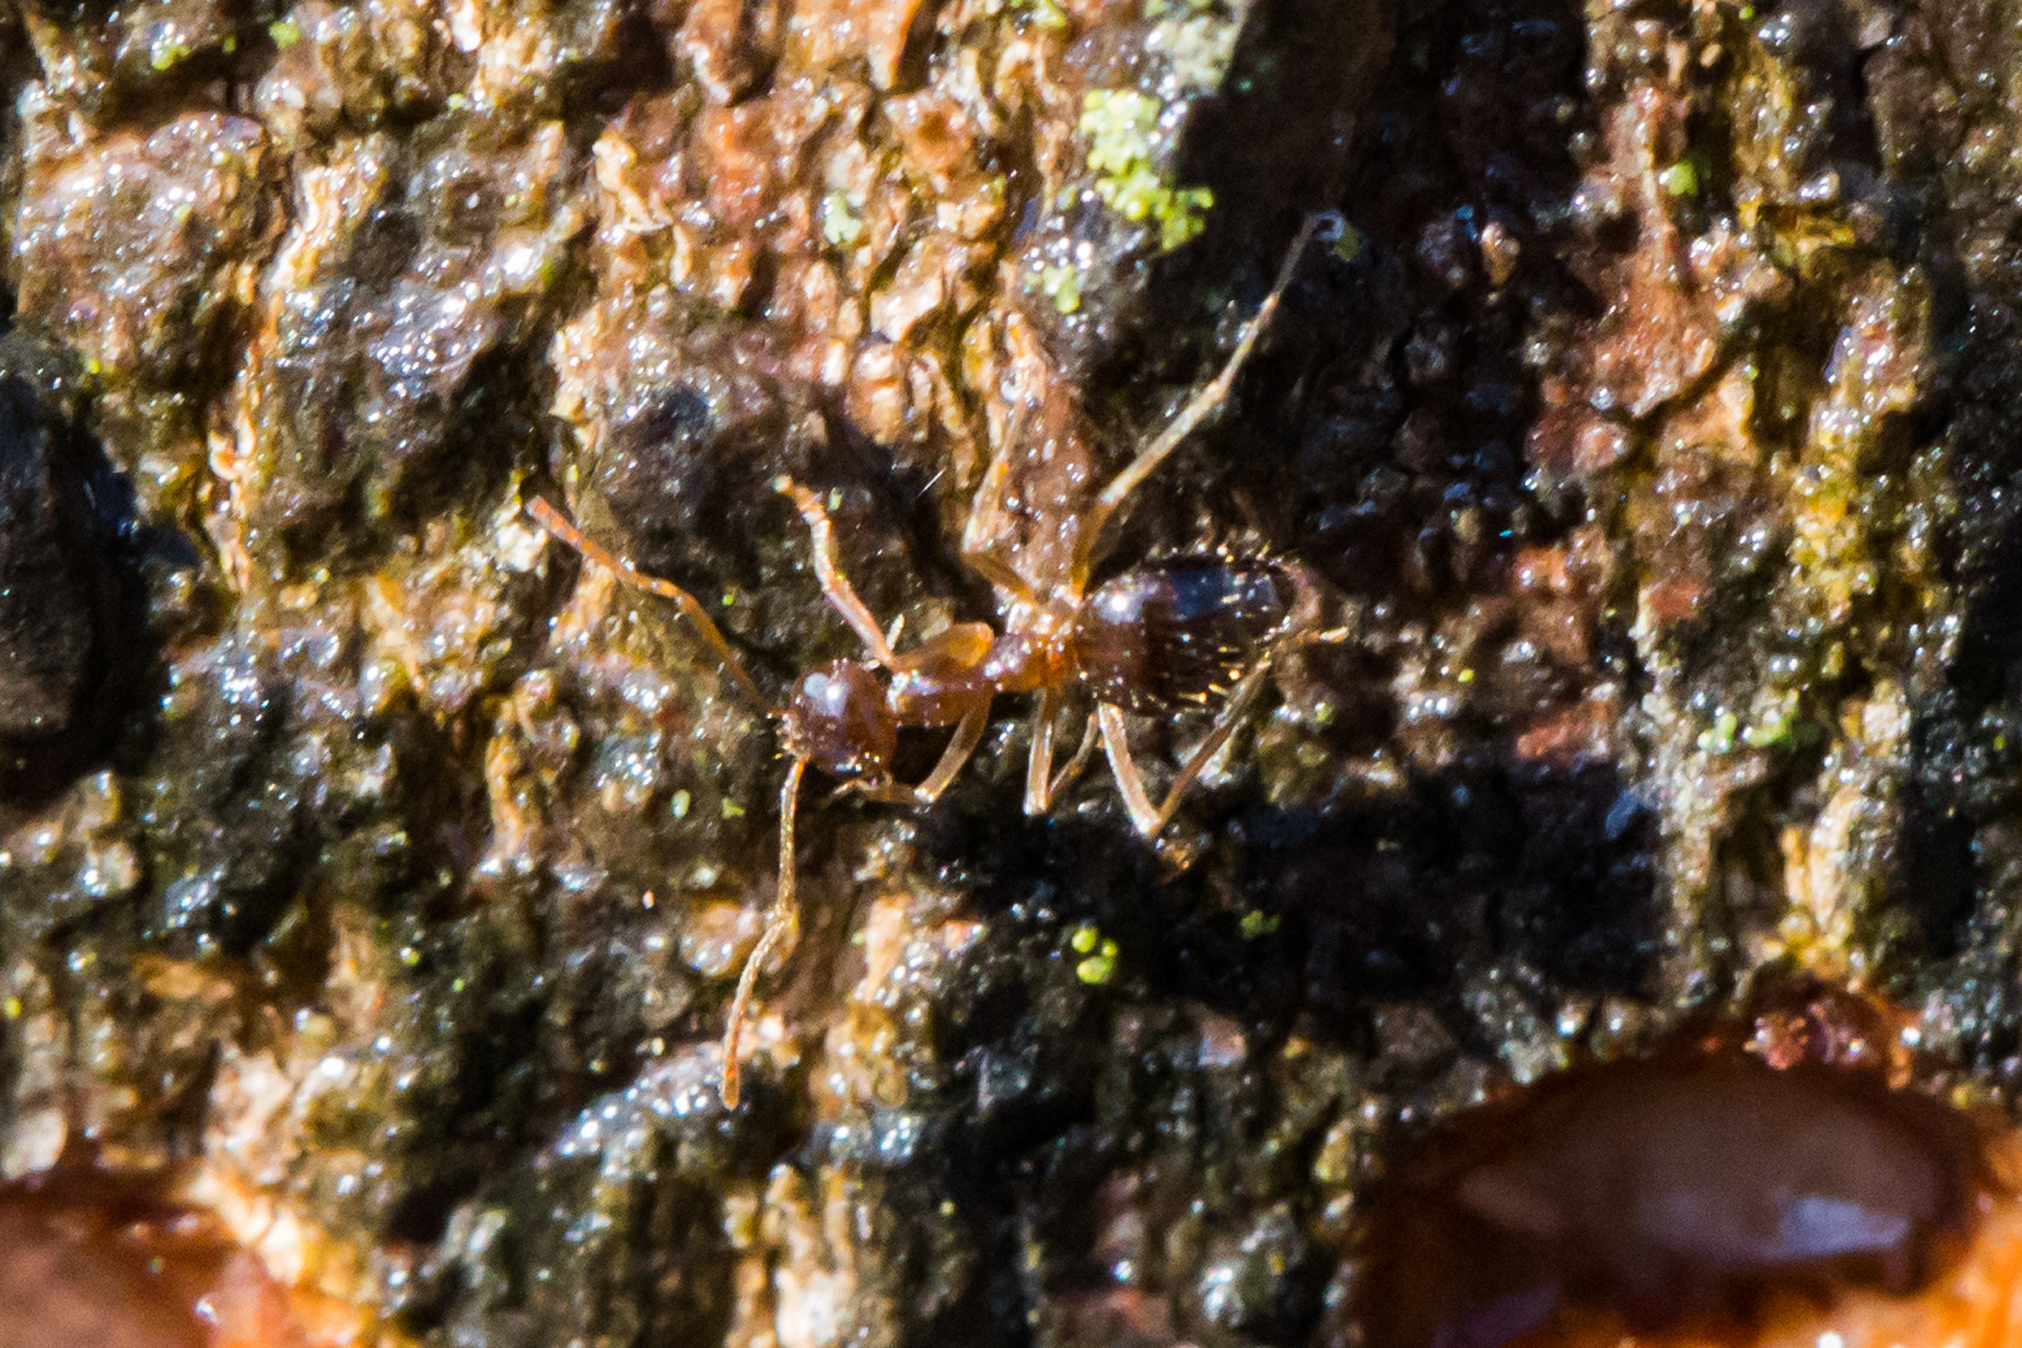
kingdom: Animalia
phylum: Arthropoda
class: Insecta
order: Hymenoptera
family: Formicidae
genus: Prenolepis
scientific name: Prenolepis imparis
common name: Small honey ant
